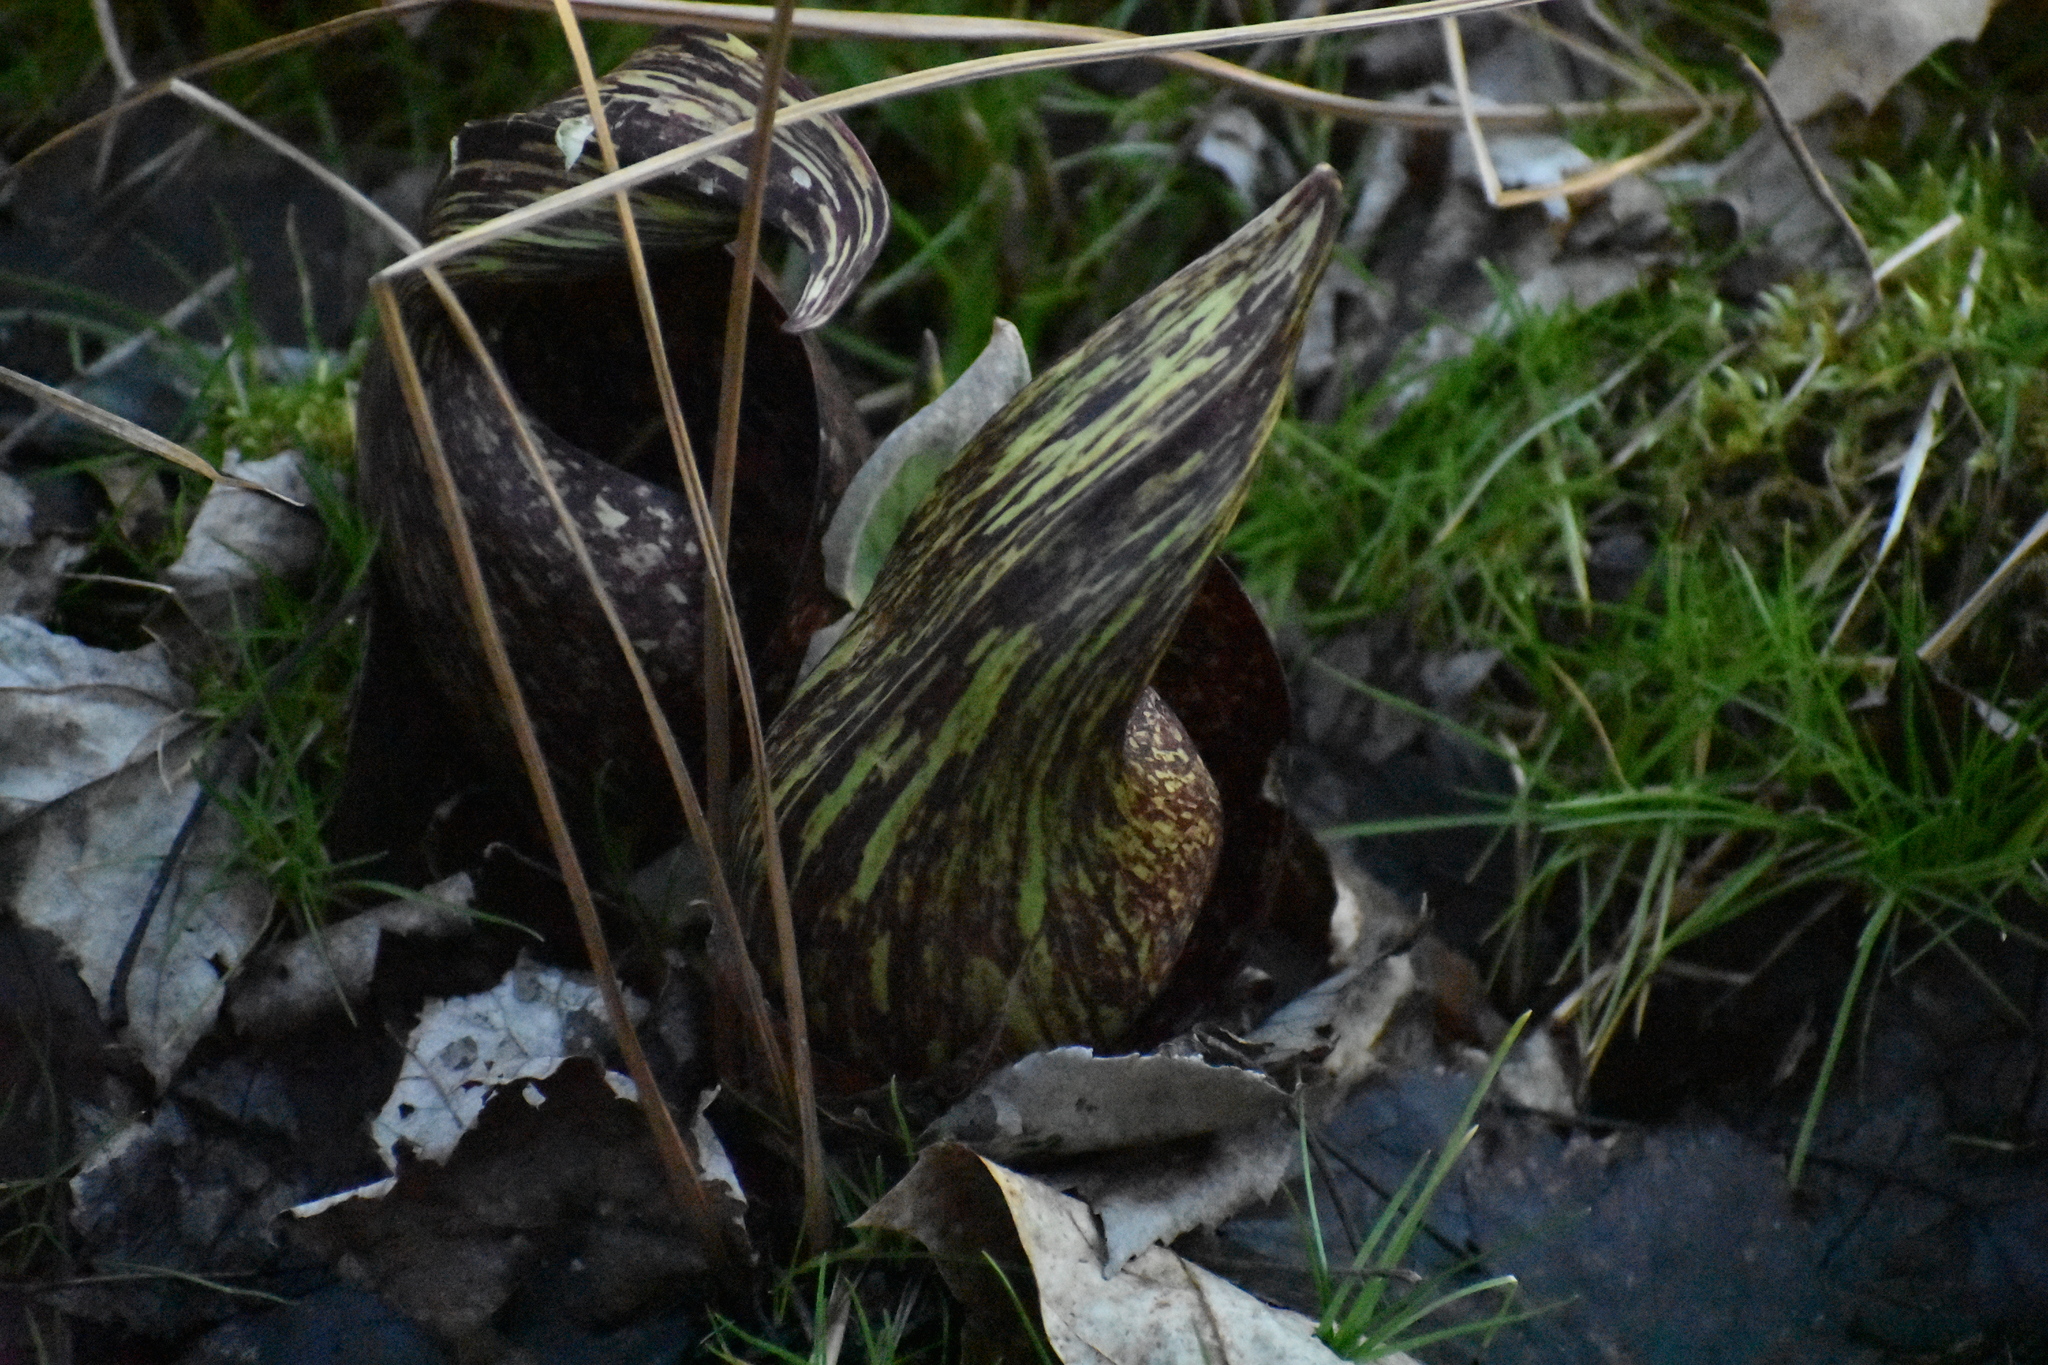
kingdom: Plantae
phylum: Tracheophyta
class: Liliopsida
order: Alismatales
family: Araceae
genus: Symplocarpus
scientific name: Symplocarpus foetidus
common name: Eastern skunk cabbage
